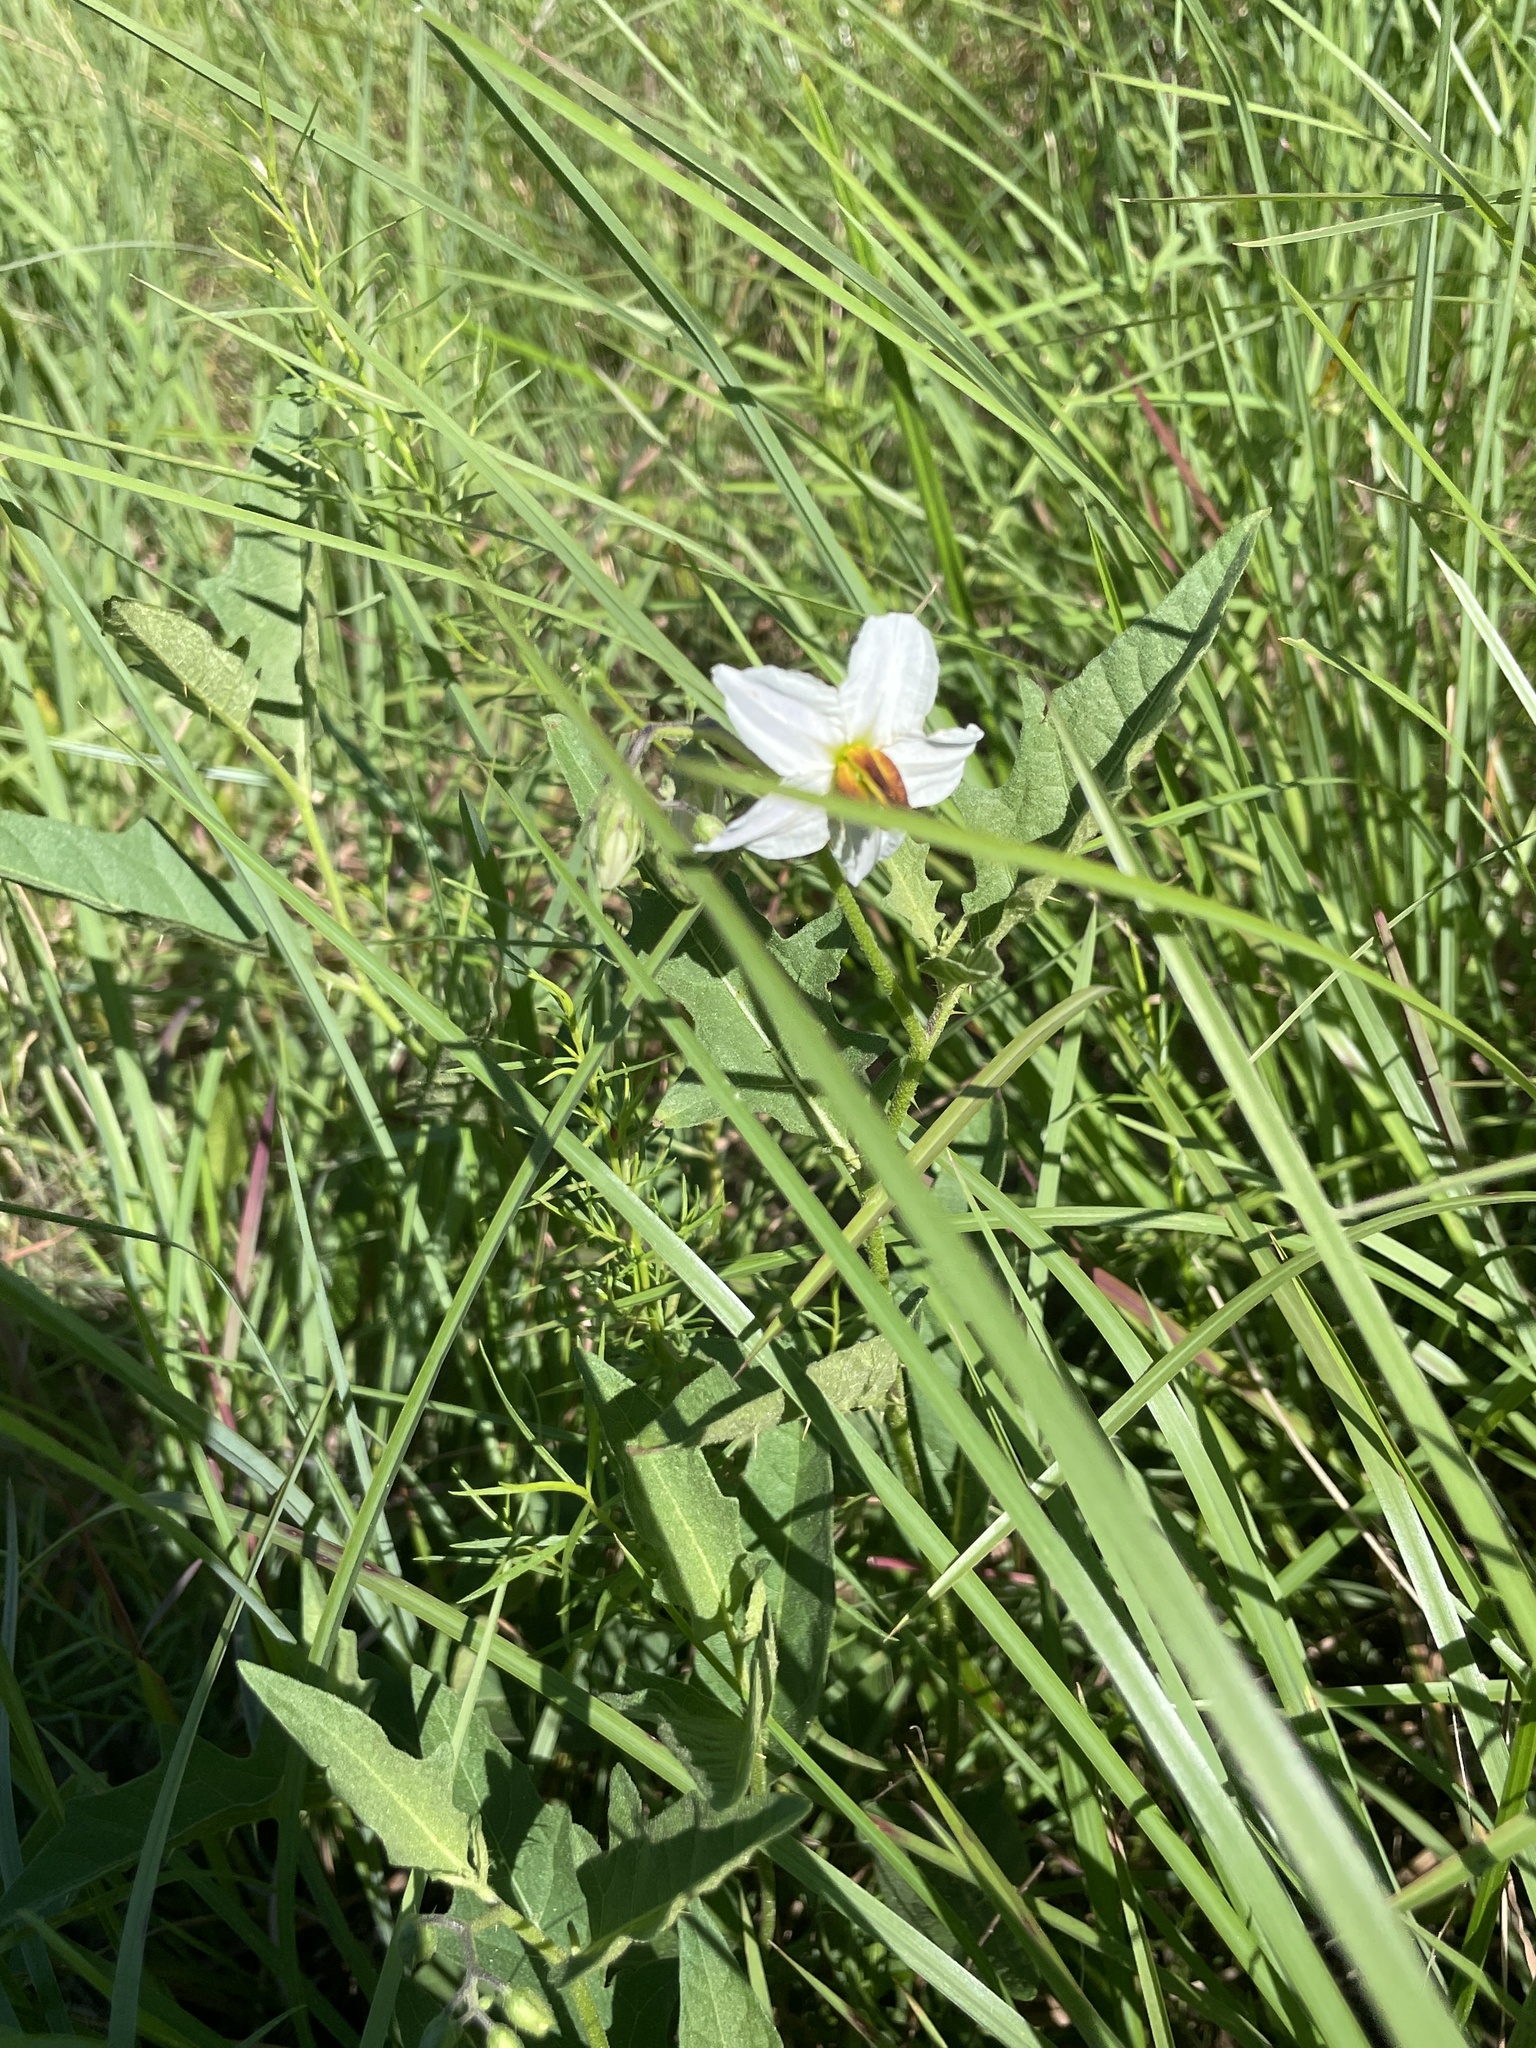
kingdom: Plantae
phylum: Tracheophyta
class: Magnoliopsida
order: Solanales
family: Solanaceae
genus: Solanum
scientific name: Solanum carolinense
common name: Horse-nettle
